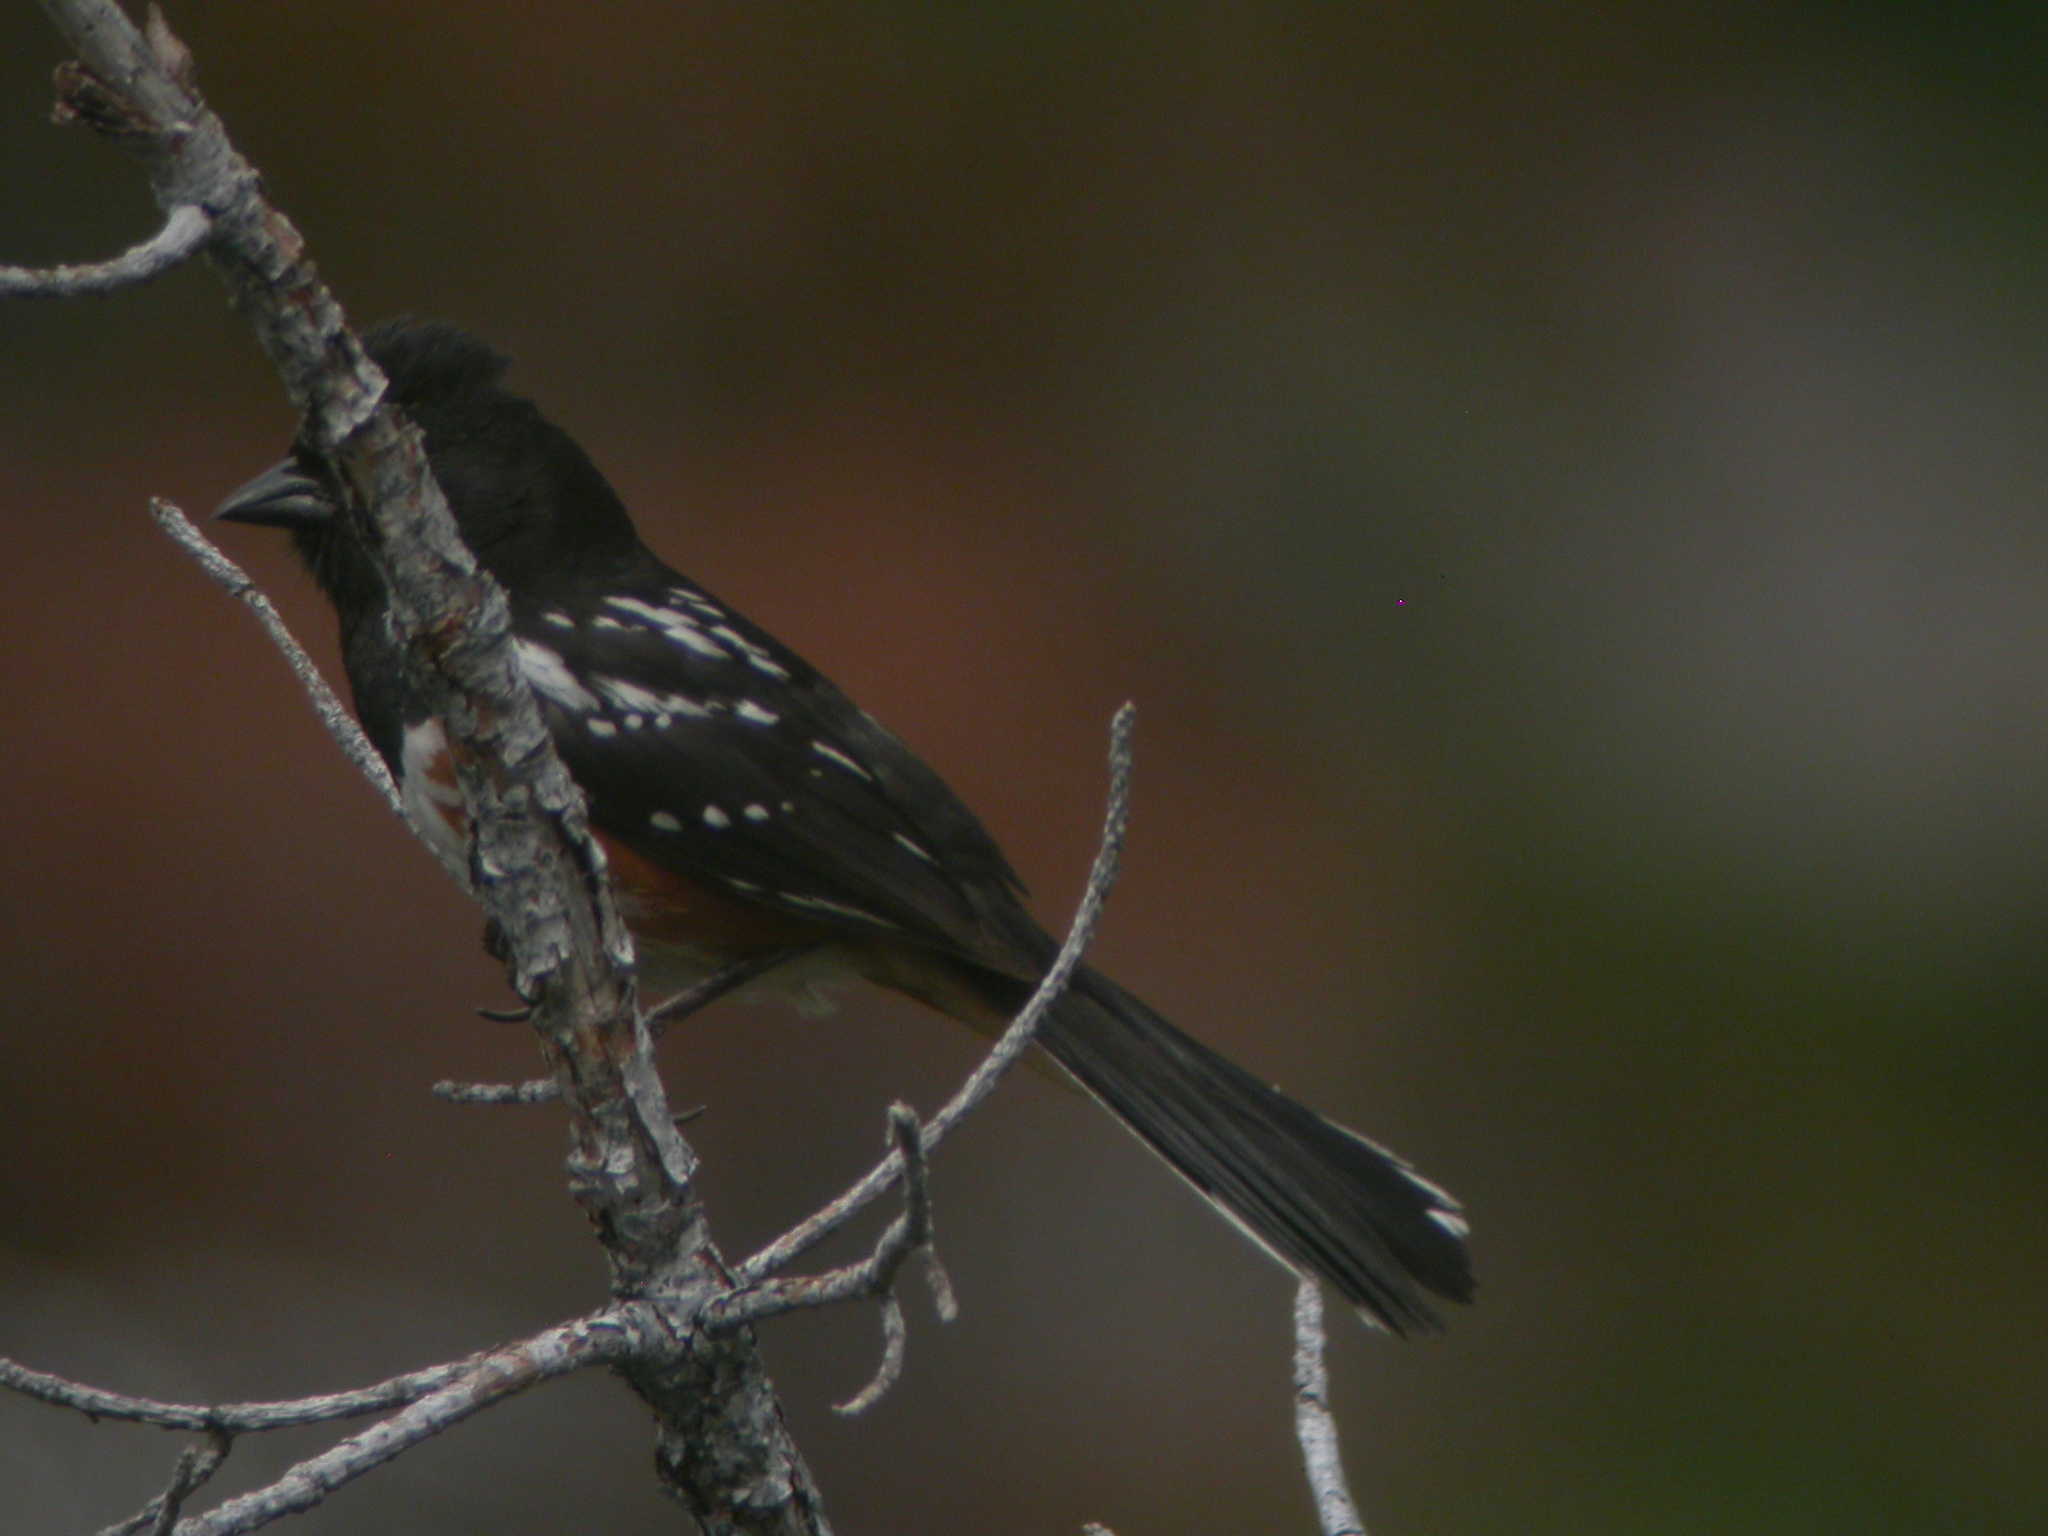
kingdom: Animalia
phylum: Chordata
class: Aves
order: Passeriformes
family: Passerellidae
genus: Pipilo
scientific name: Pipilo maculatus
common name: Spotted towhee
